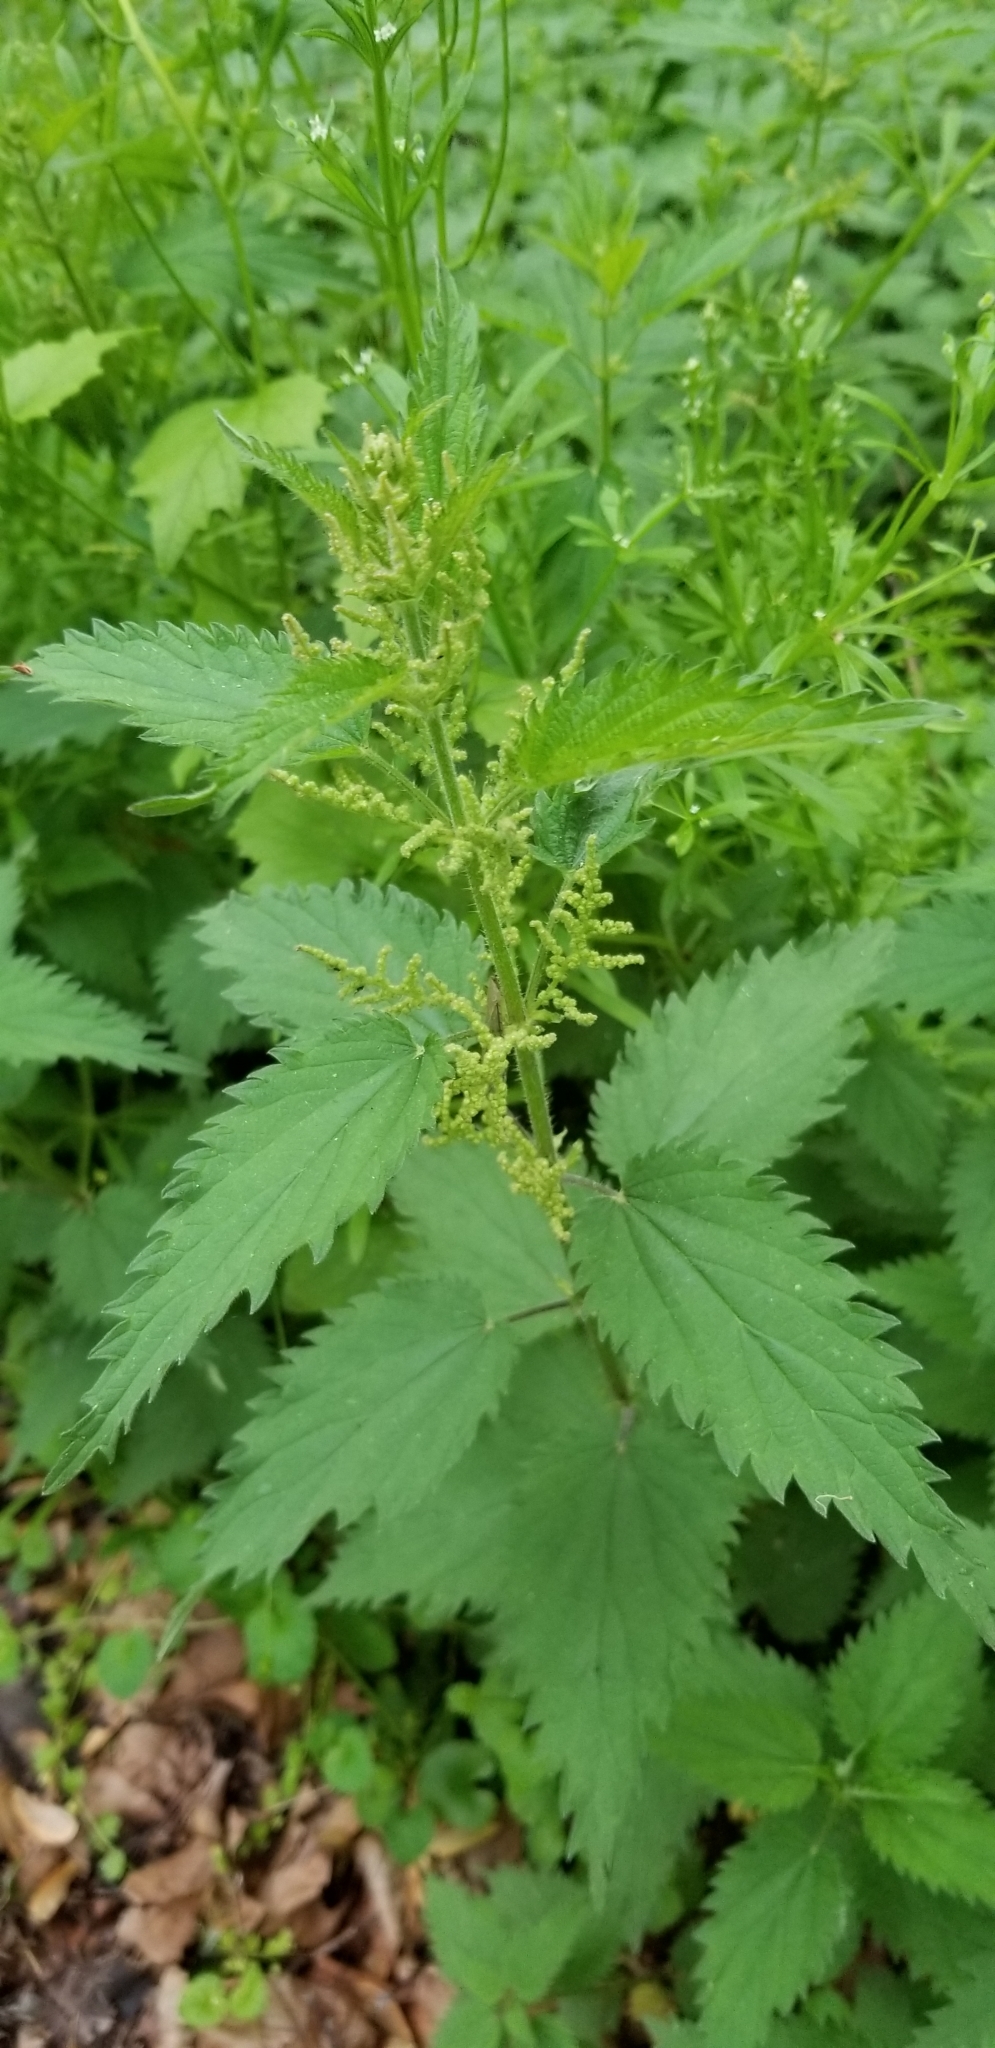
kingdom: Plantae
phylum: Tracheophyta
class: Magnoliopsida
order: Rosales
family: Urticaceae
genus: Urtica
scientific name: Urtica dioica
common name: Common nettle
